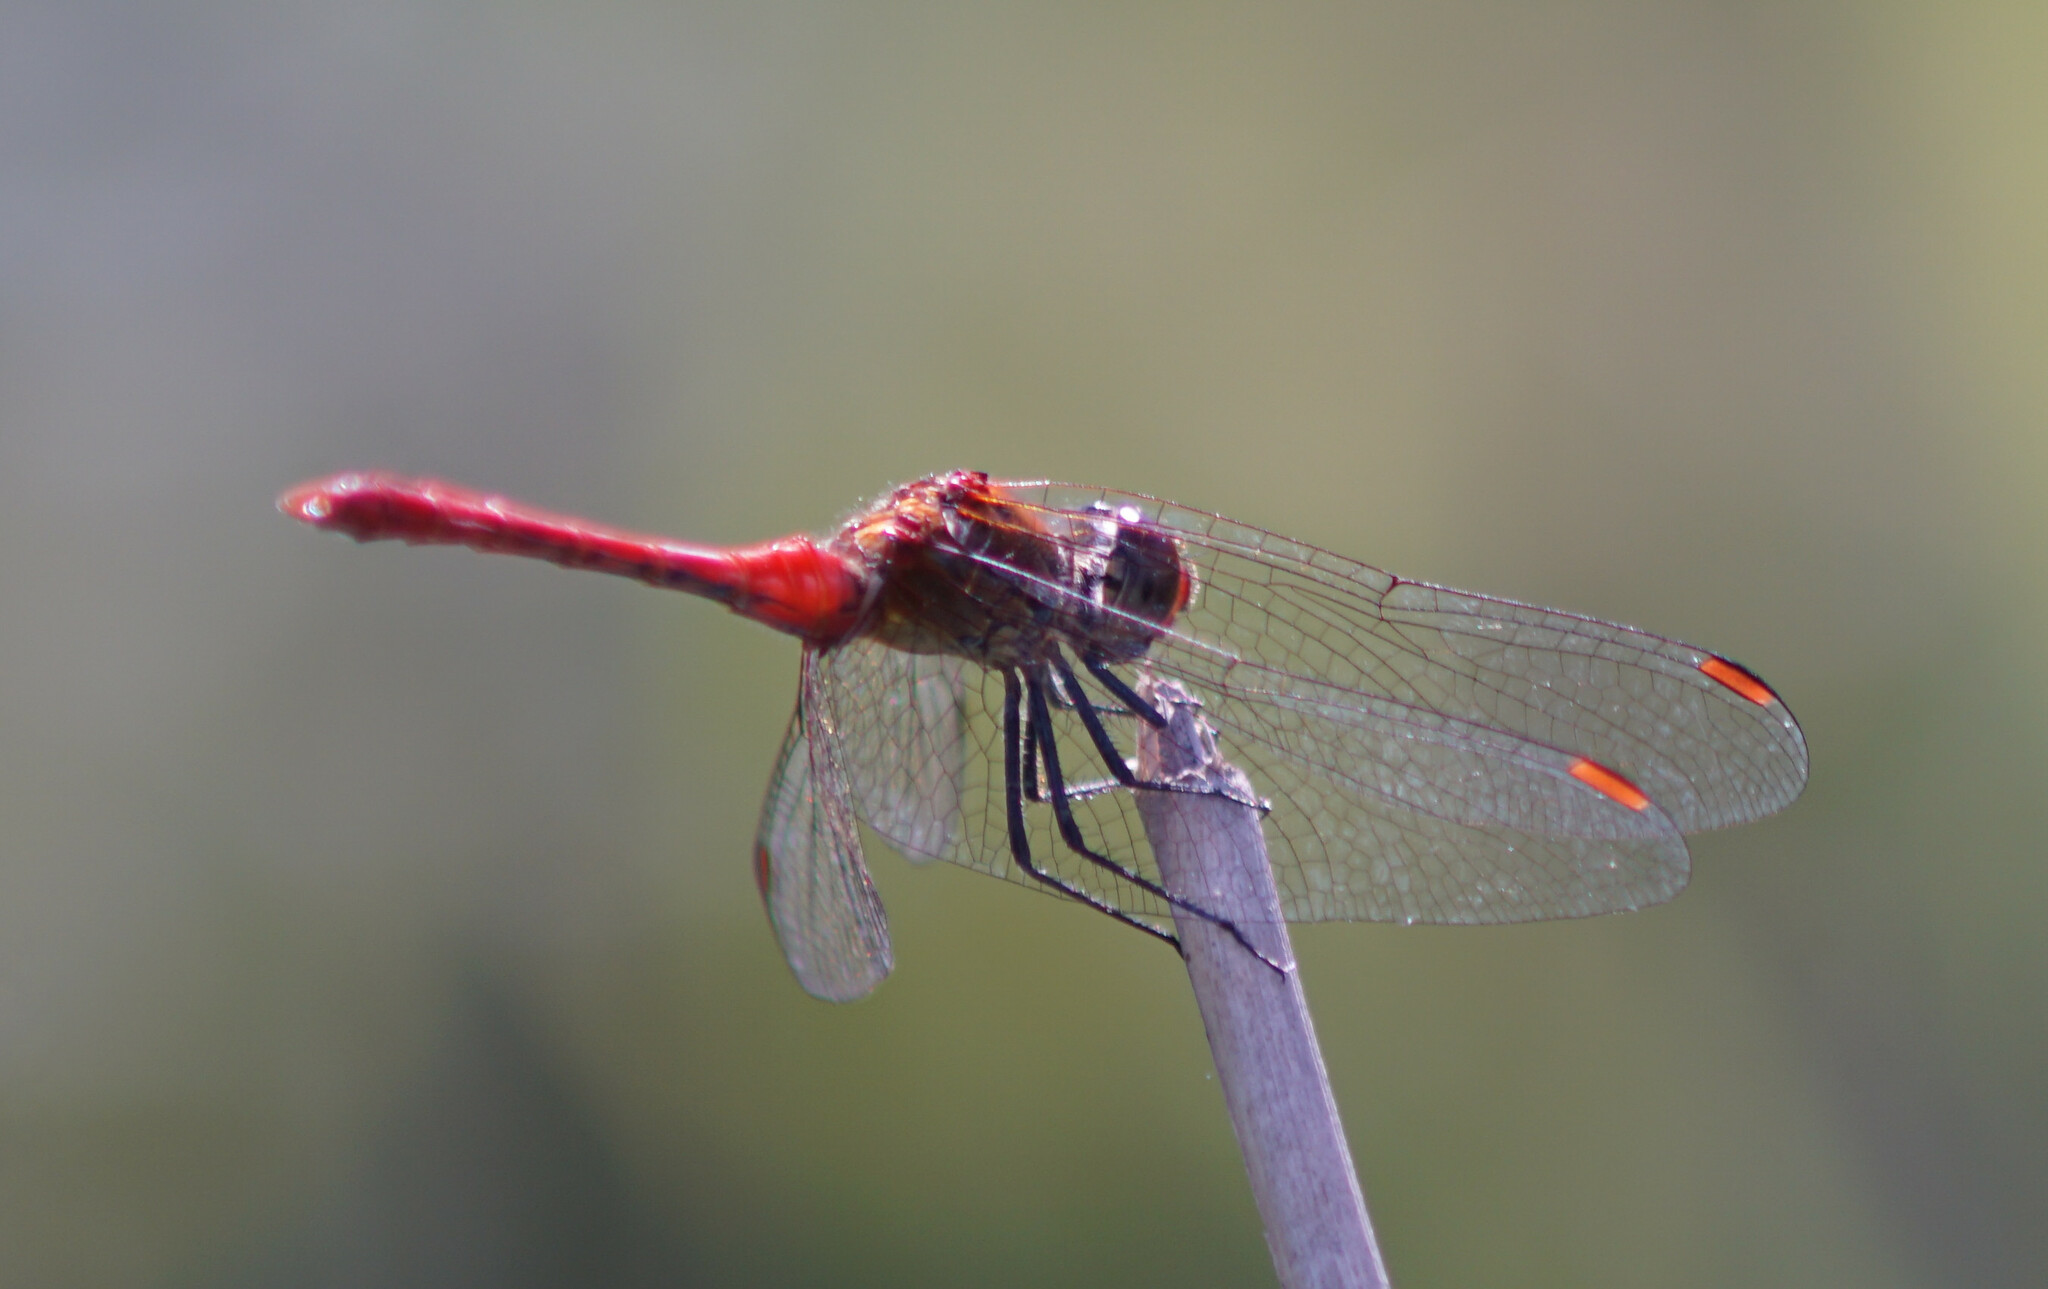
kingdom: Animalia
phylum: Arthropoda
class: Insecta
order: Odonata
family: Libellulidae
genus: Sympetrum
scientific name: Sympetrum sanguineum
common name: Ruddy darter
